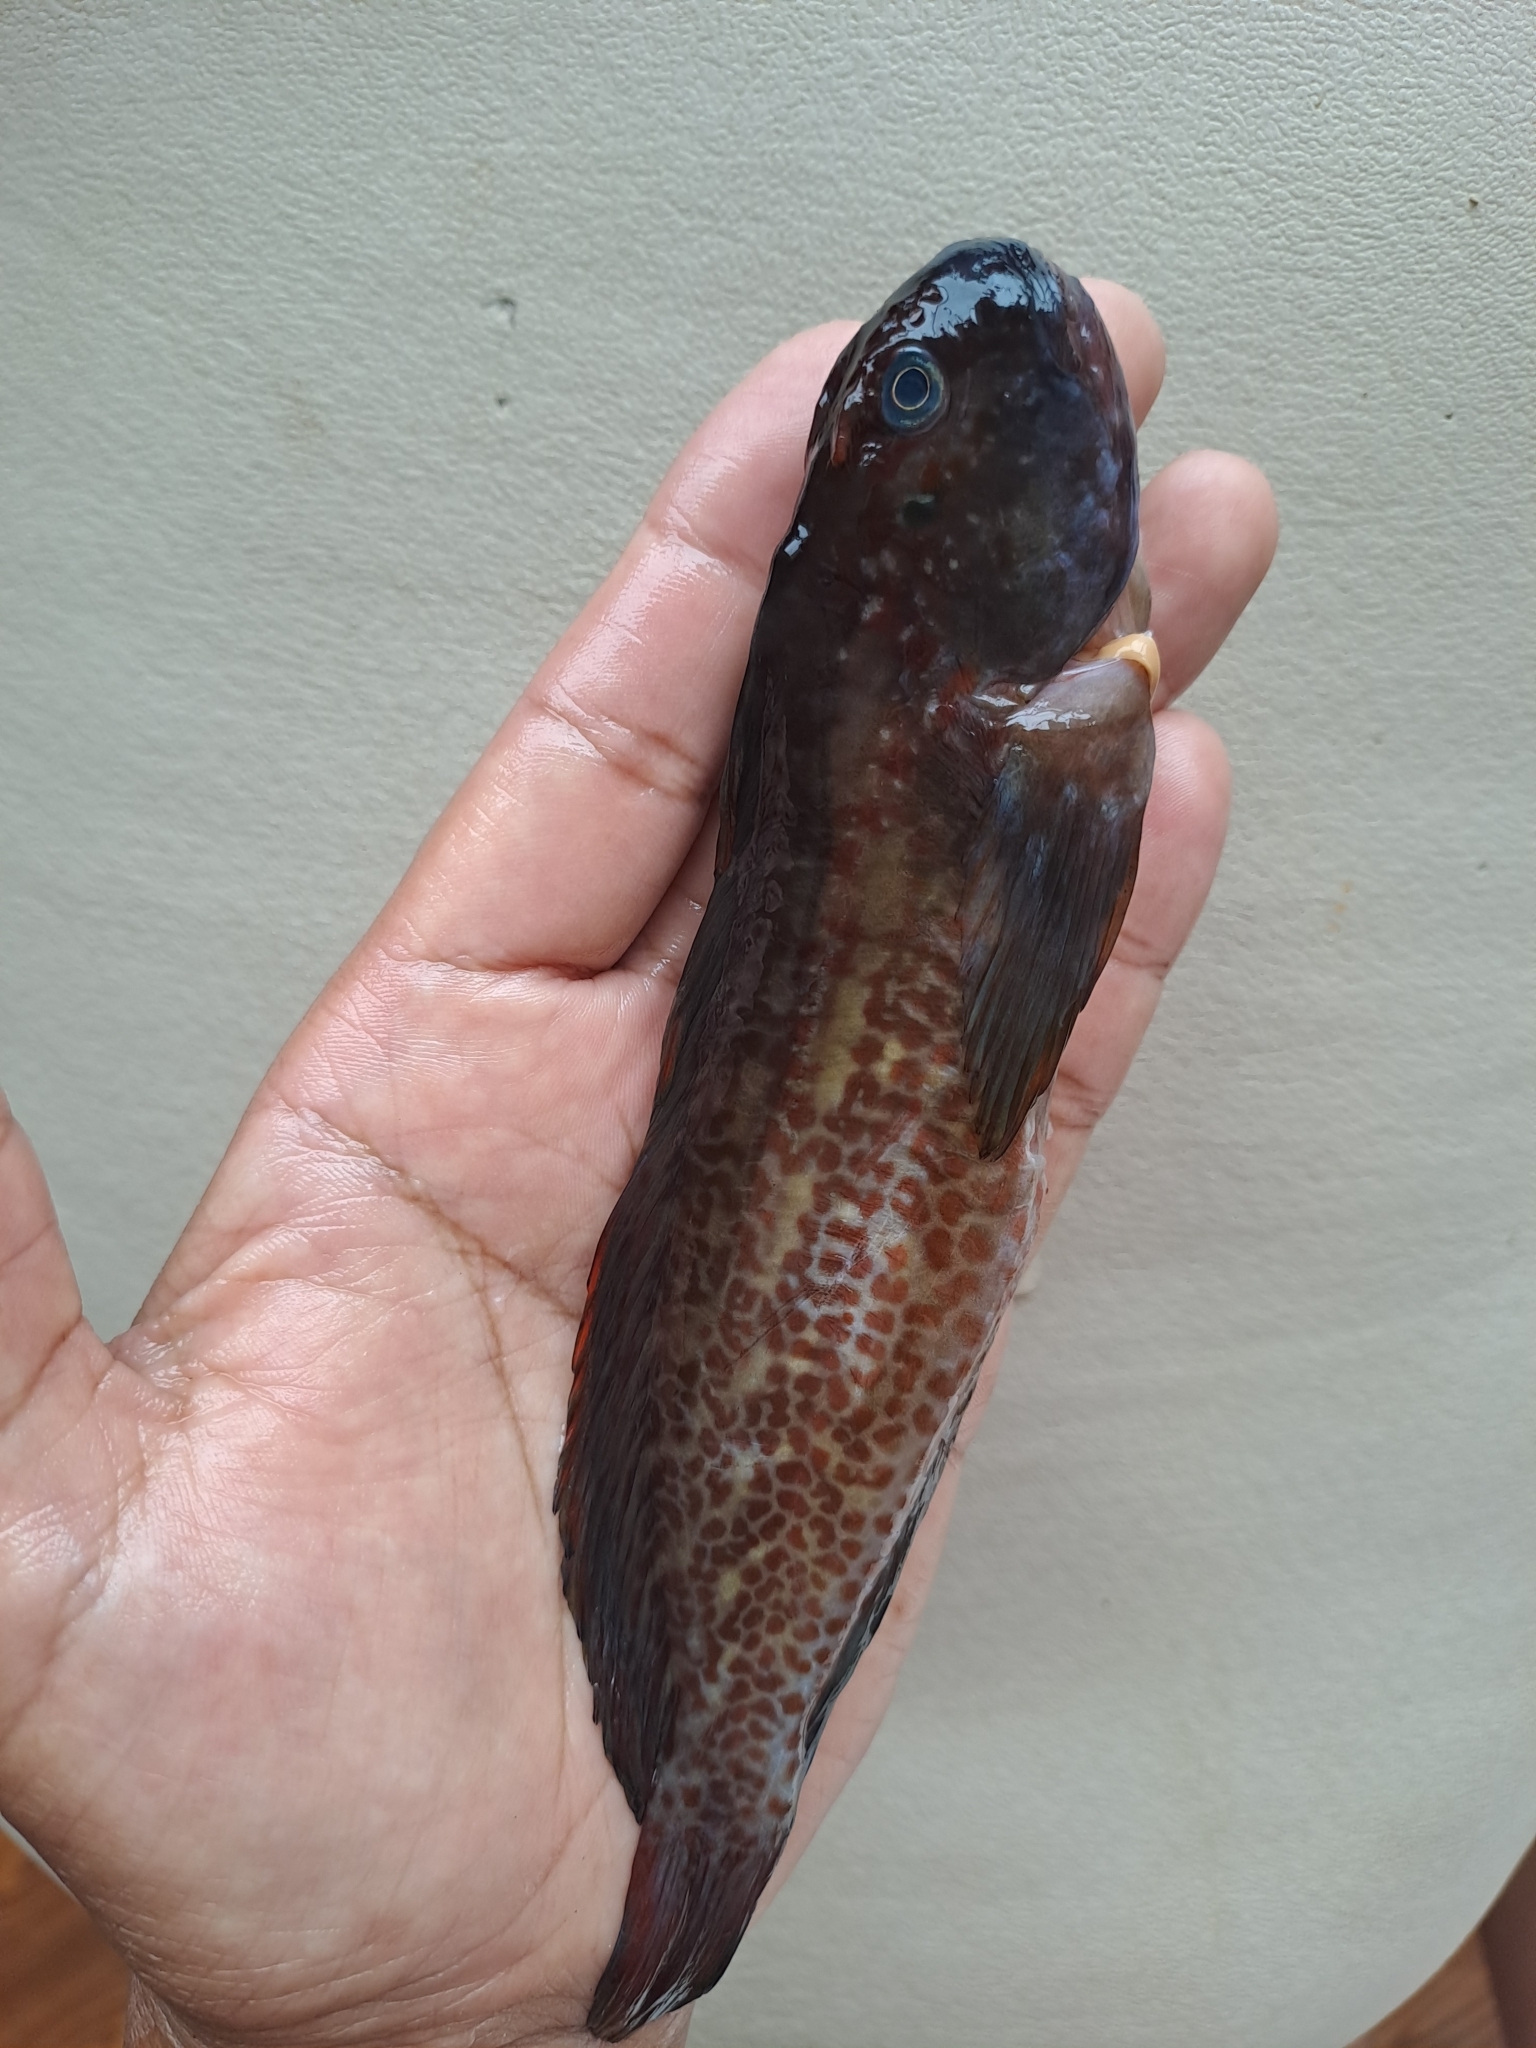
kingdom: Animalia
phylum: Chordata
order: Perciformes
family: Blenniidae
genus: Scartichthys
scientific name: Scartichthys gigas
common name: Giant blenny
